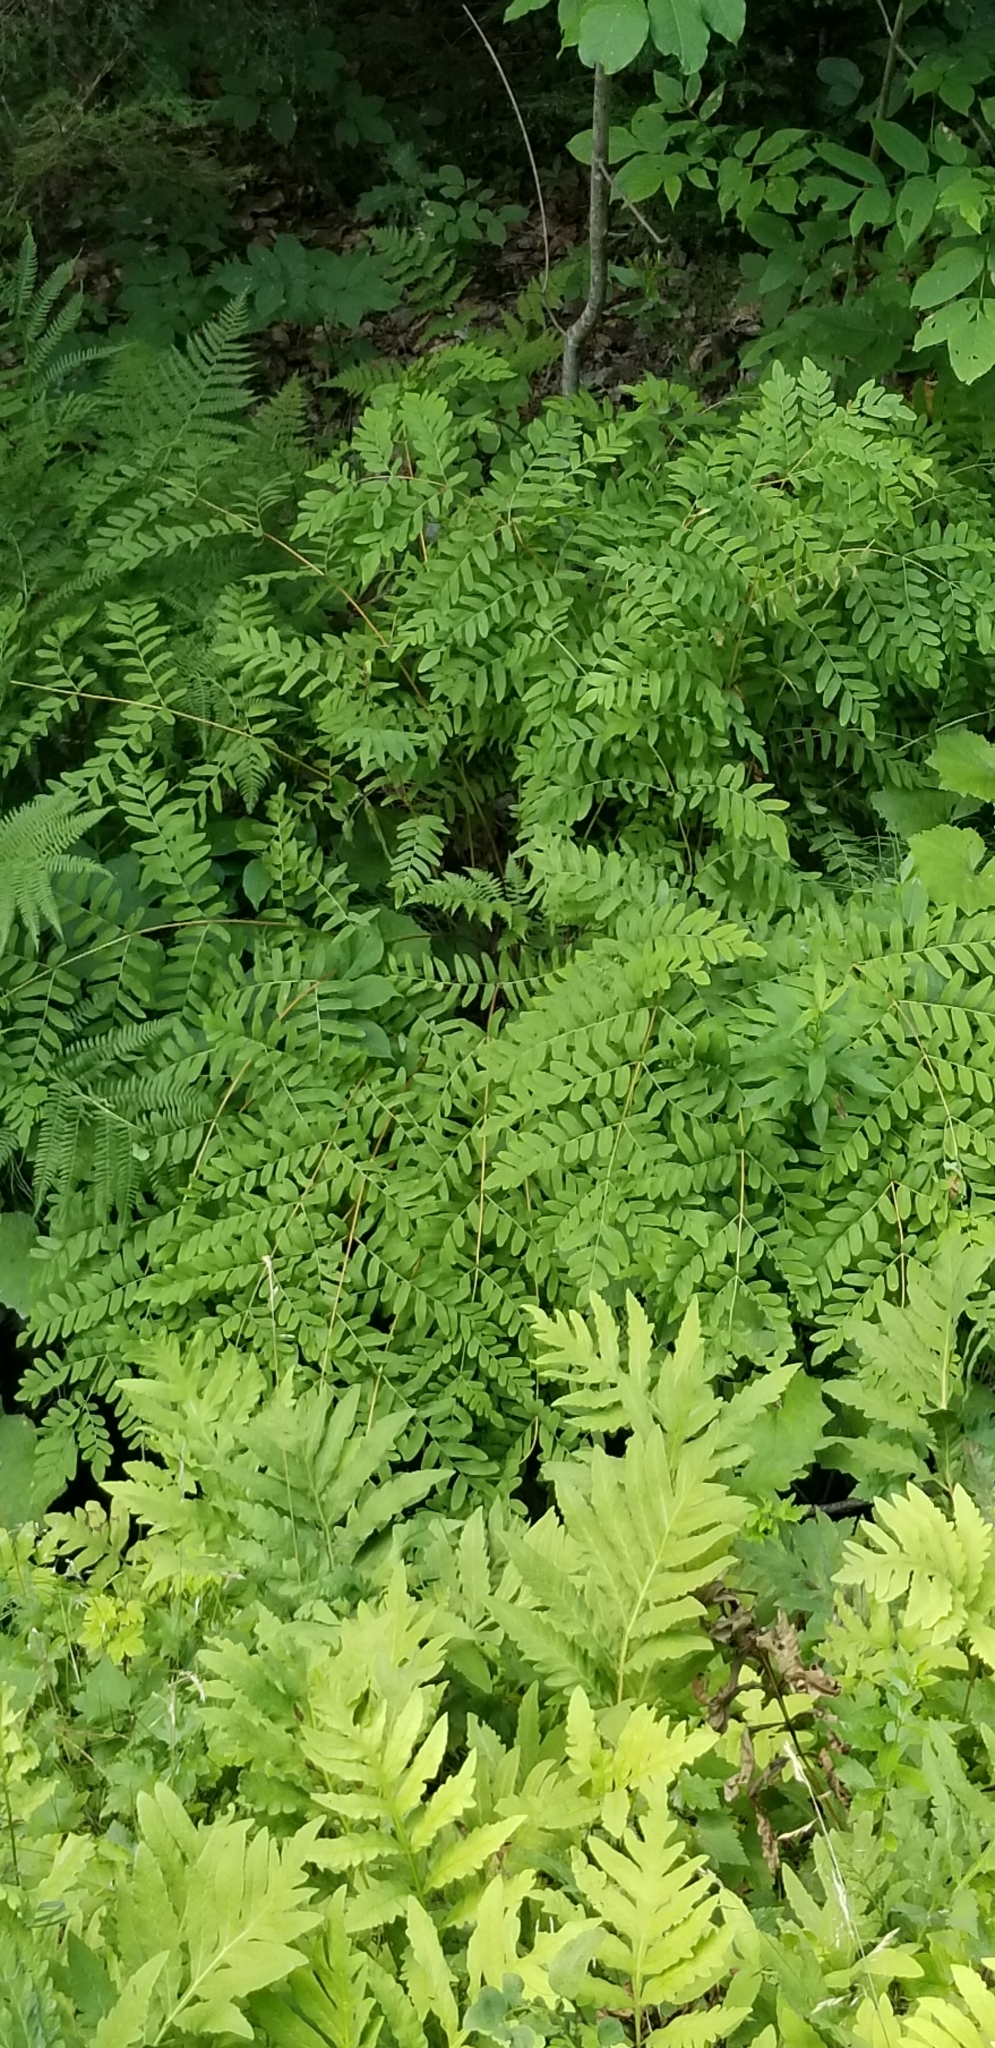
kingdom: Plantae
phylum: Tracheophyta
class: Polypodiopsida
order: Osmundales
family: Osmundaceae
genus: Osmunda
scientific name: Osmunda spectabilis
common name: American royal fern
